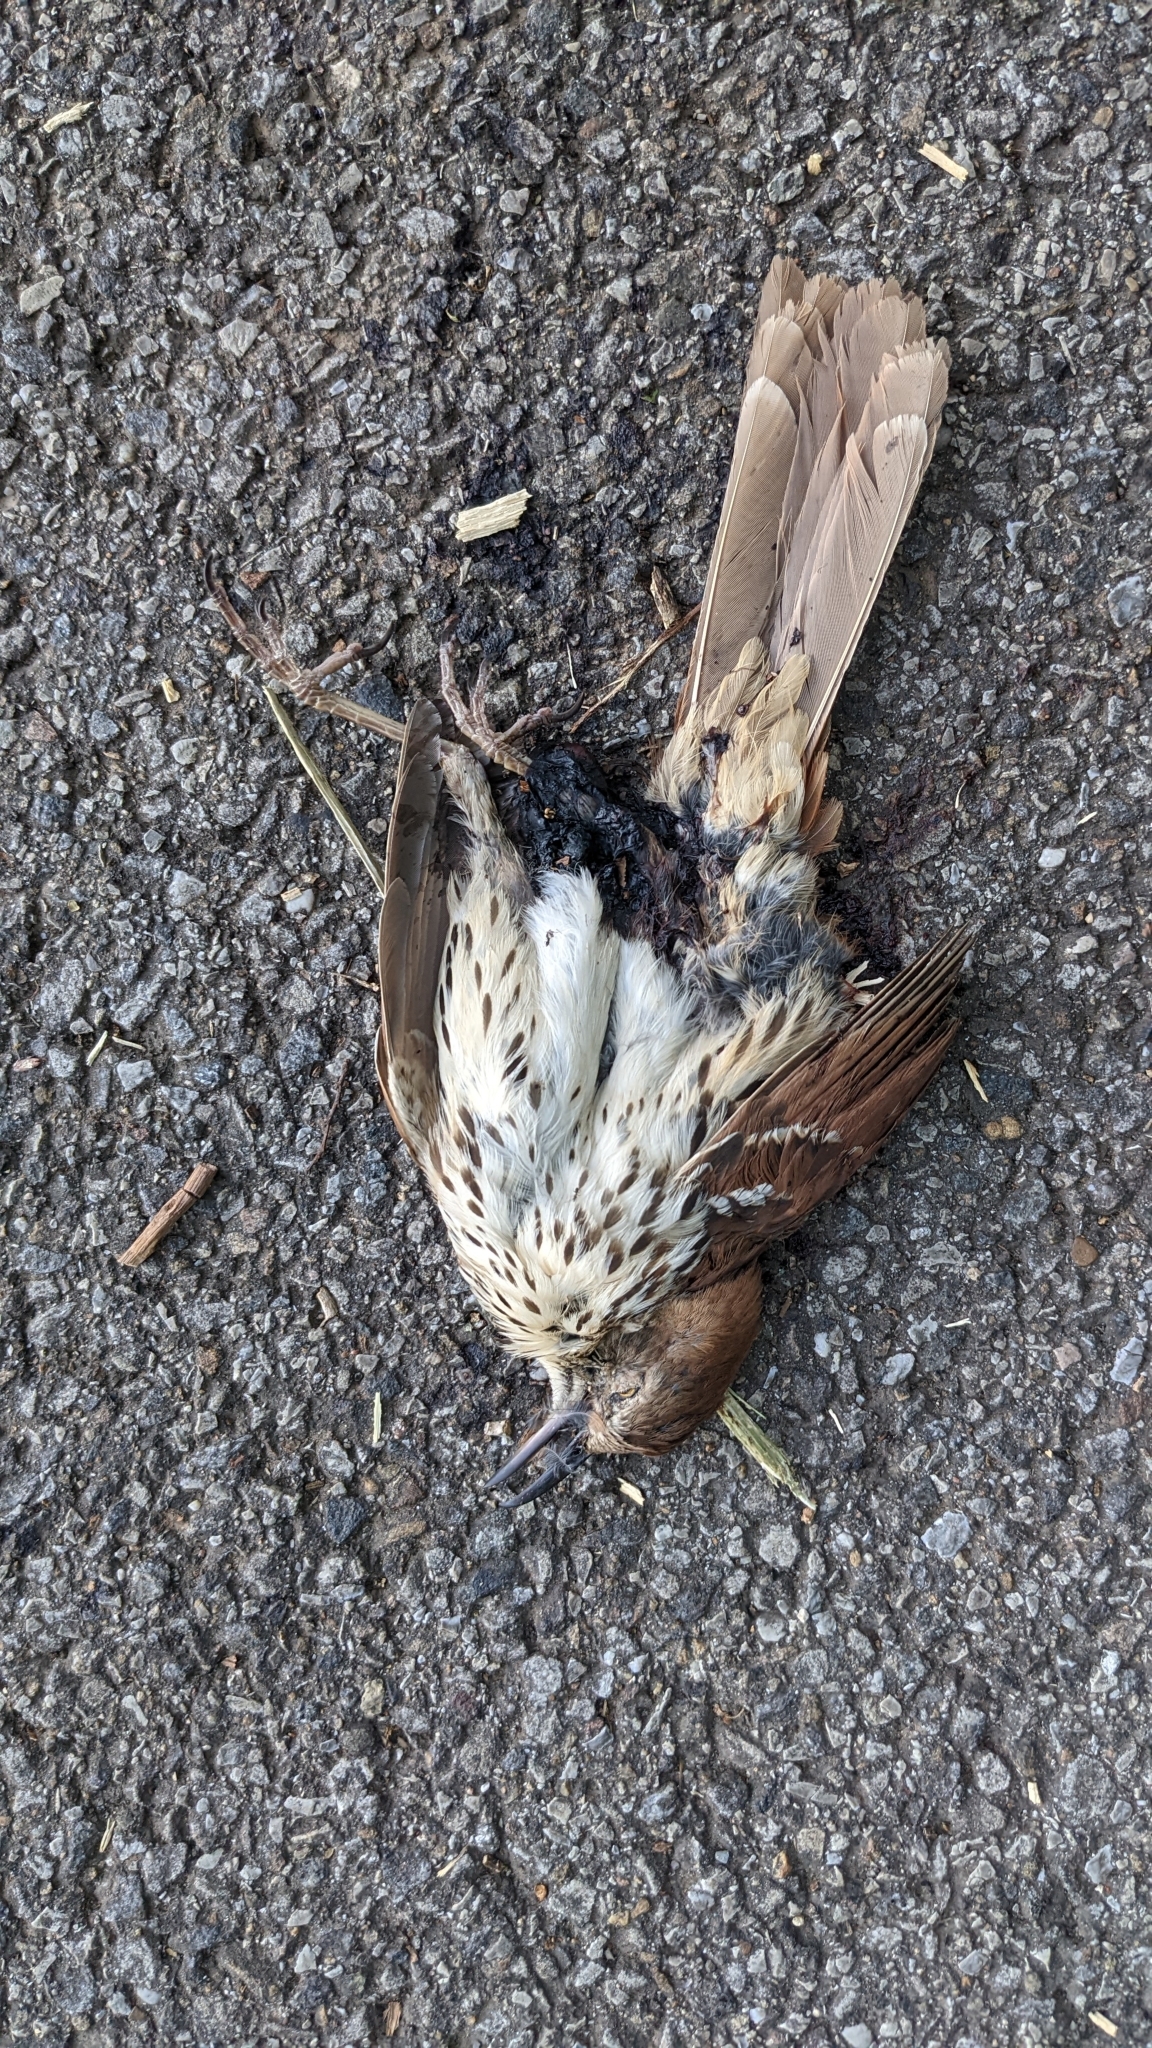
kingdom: Animalia
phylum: Chordata
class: Aves
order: Passeriformes
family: Mimidae
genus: Toxostoma
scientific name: Toxostoma rufum
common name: Brown thrasher
